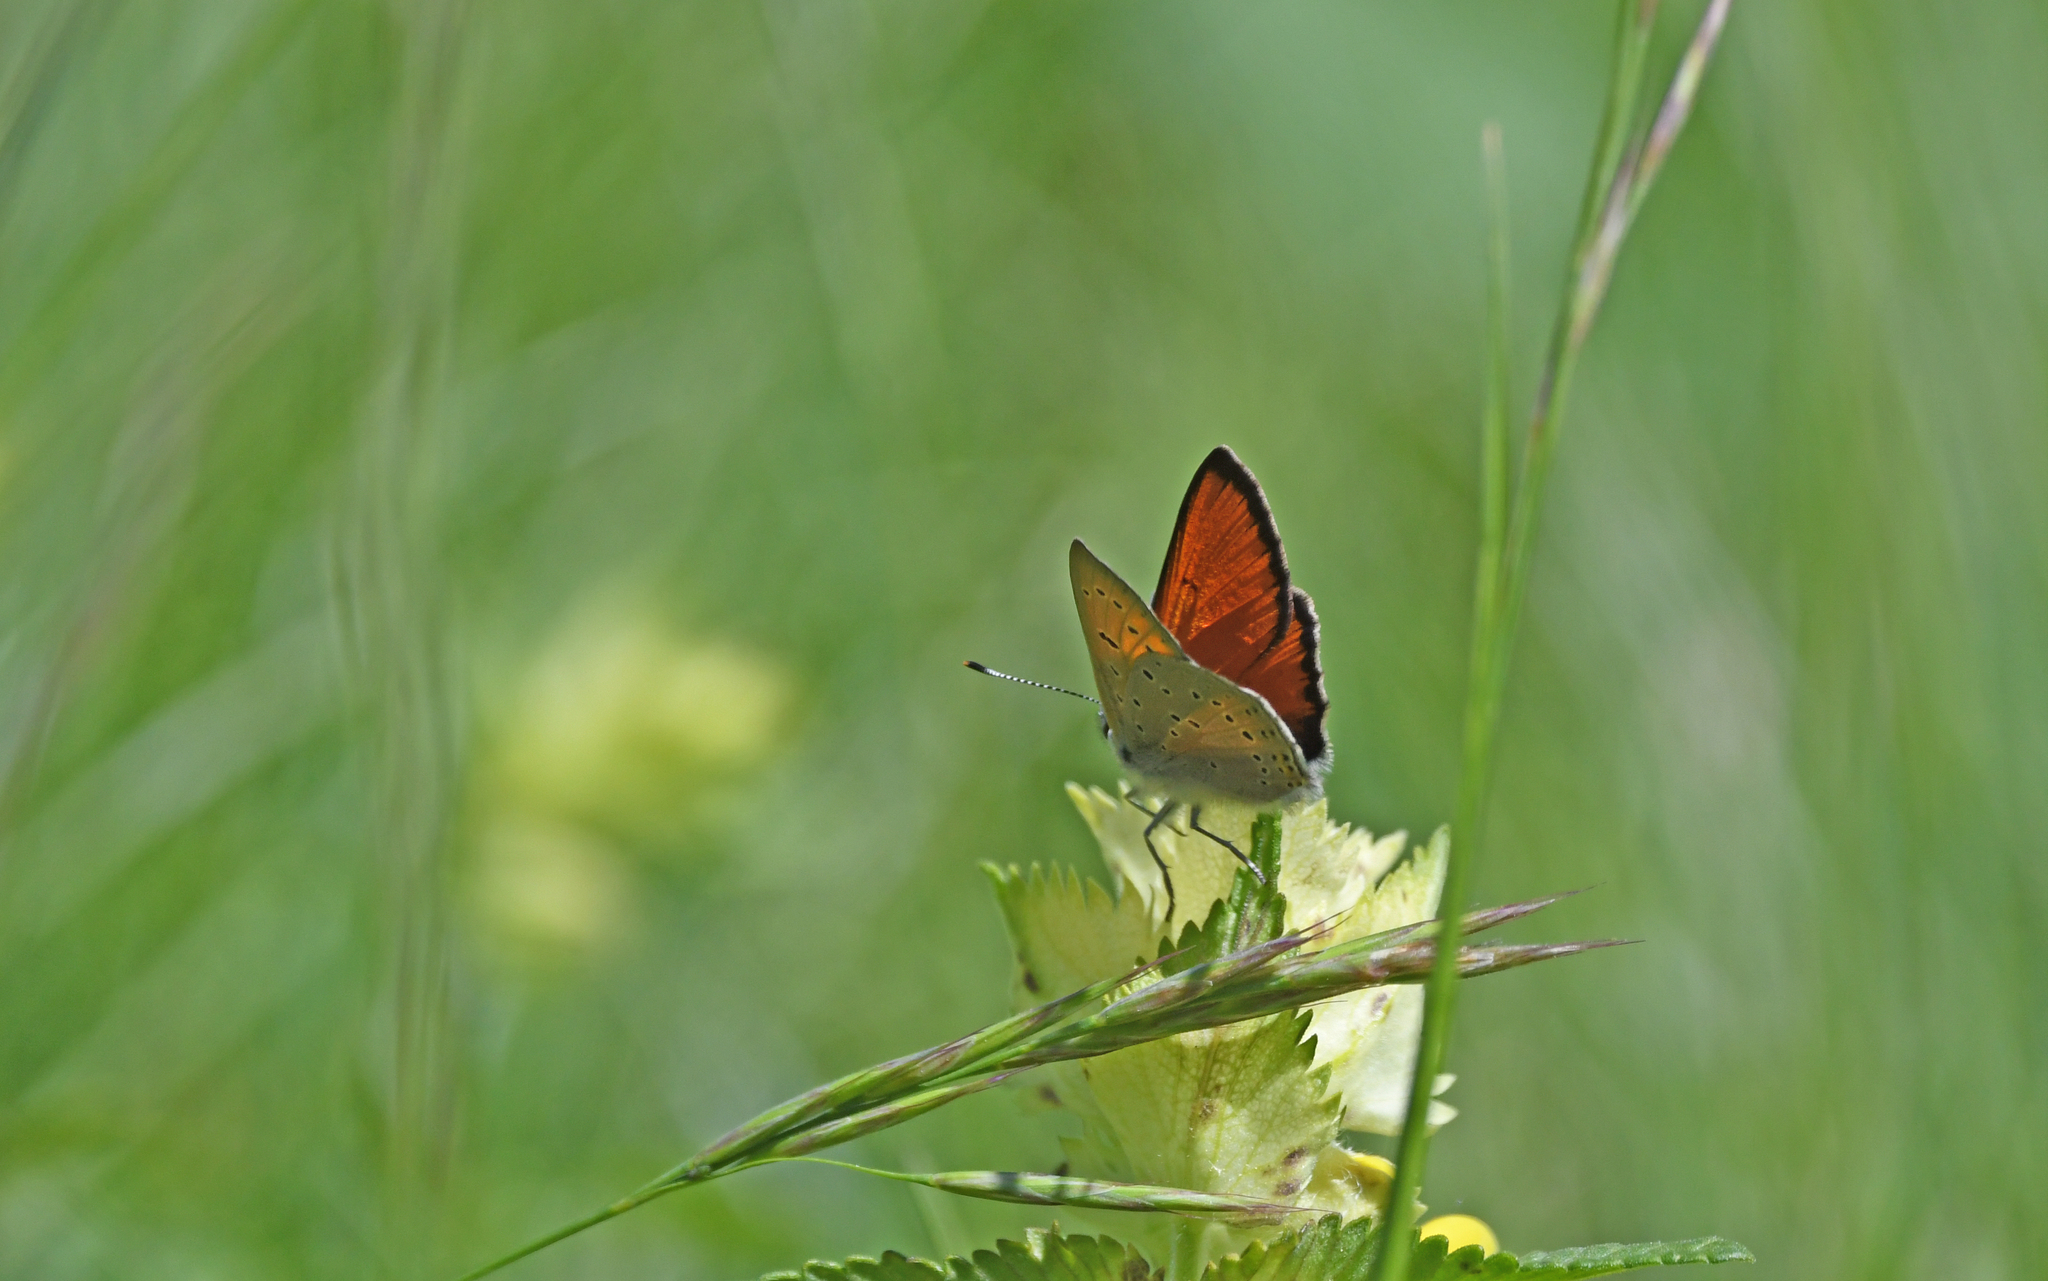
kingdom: Animalia
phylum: Arthropoda
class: Insecta
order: Lepidoptera
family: Lycaenidae
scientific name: Lycaenidae
